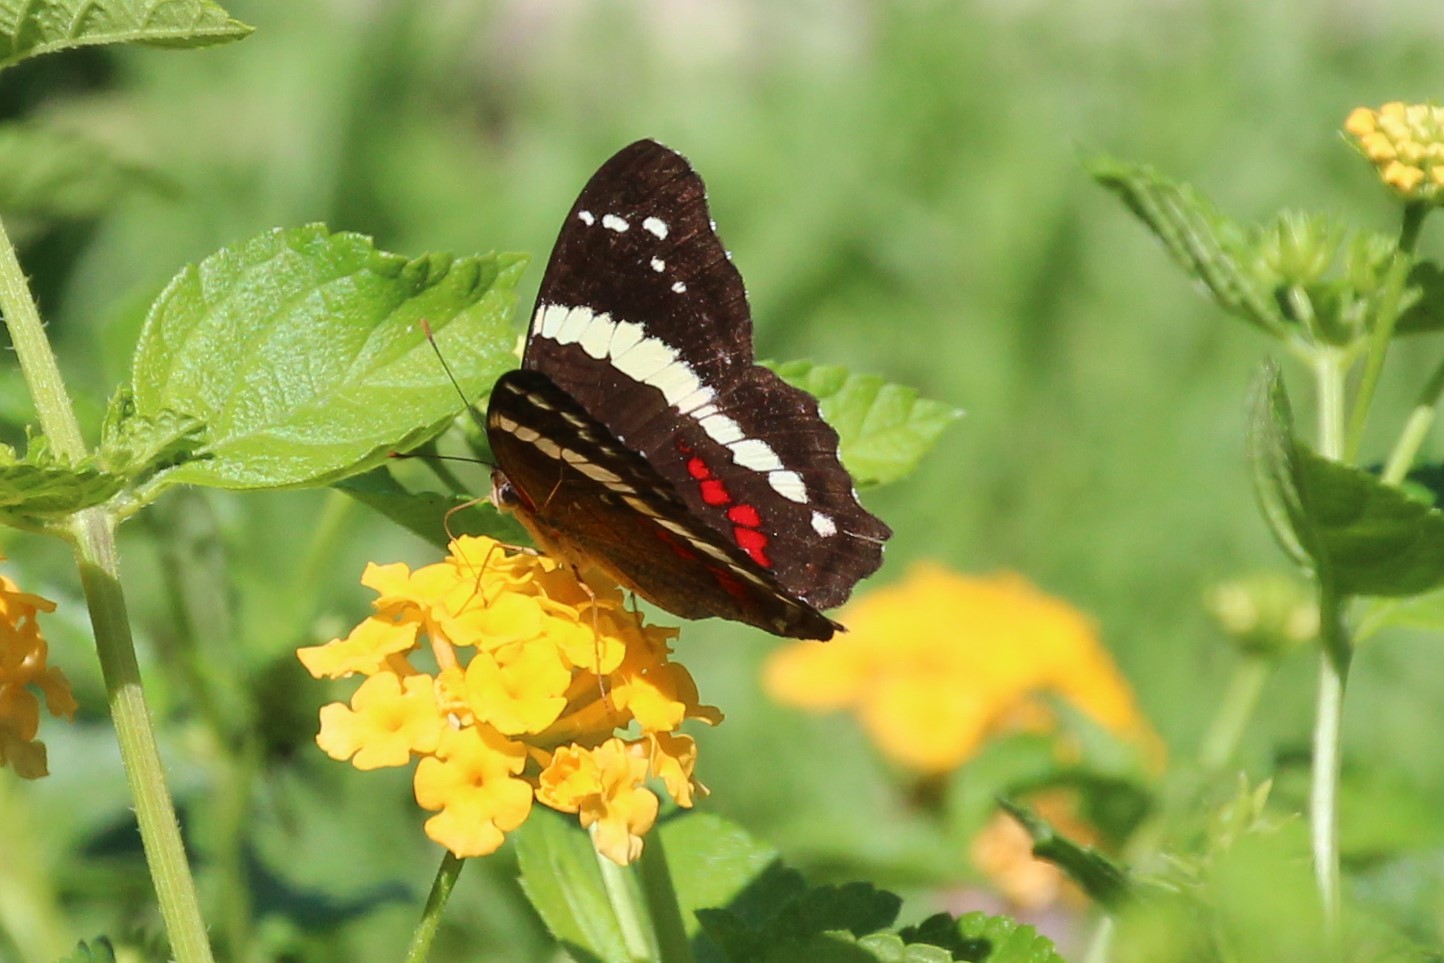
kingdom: Animalia
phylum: Arthropoda
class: Insecta
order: Lepidoptera
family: Nymphalidae
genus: Anartia
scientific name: Anartia fatima
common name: Banded peacock
